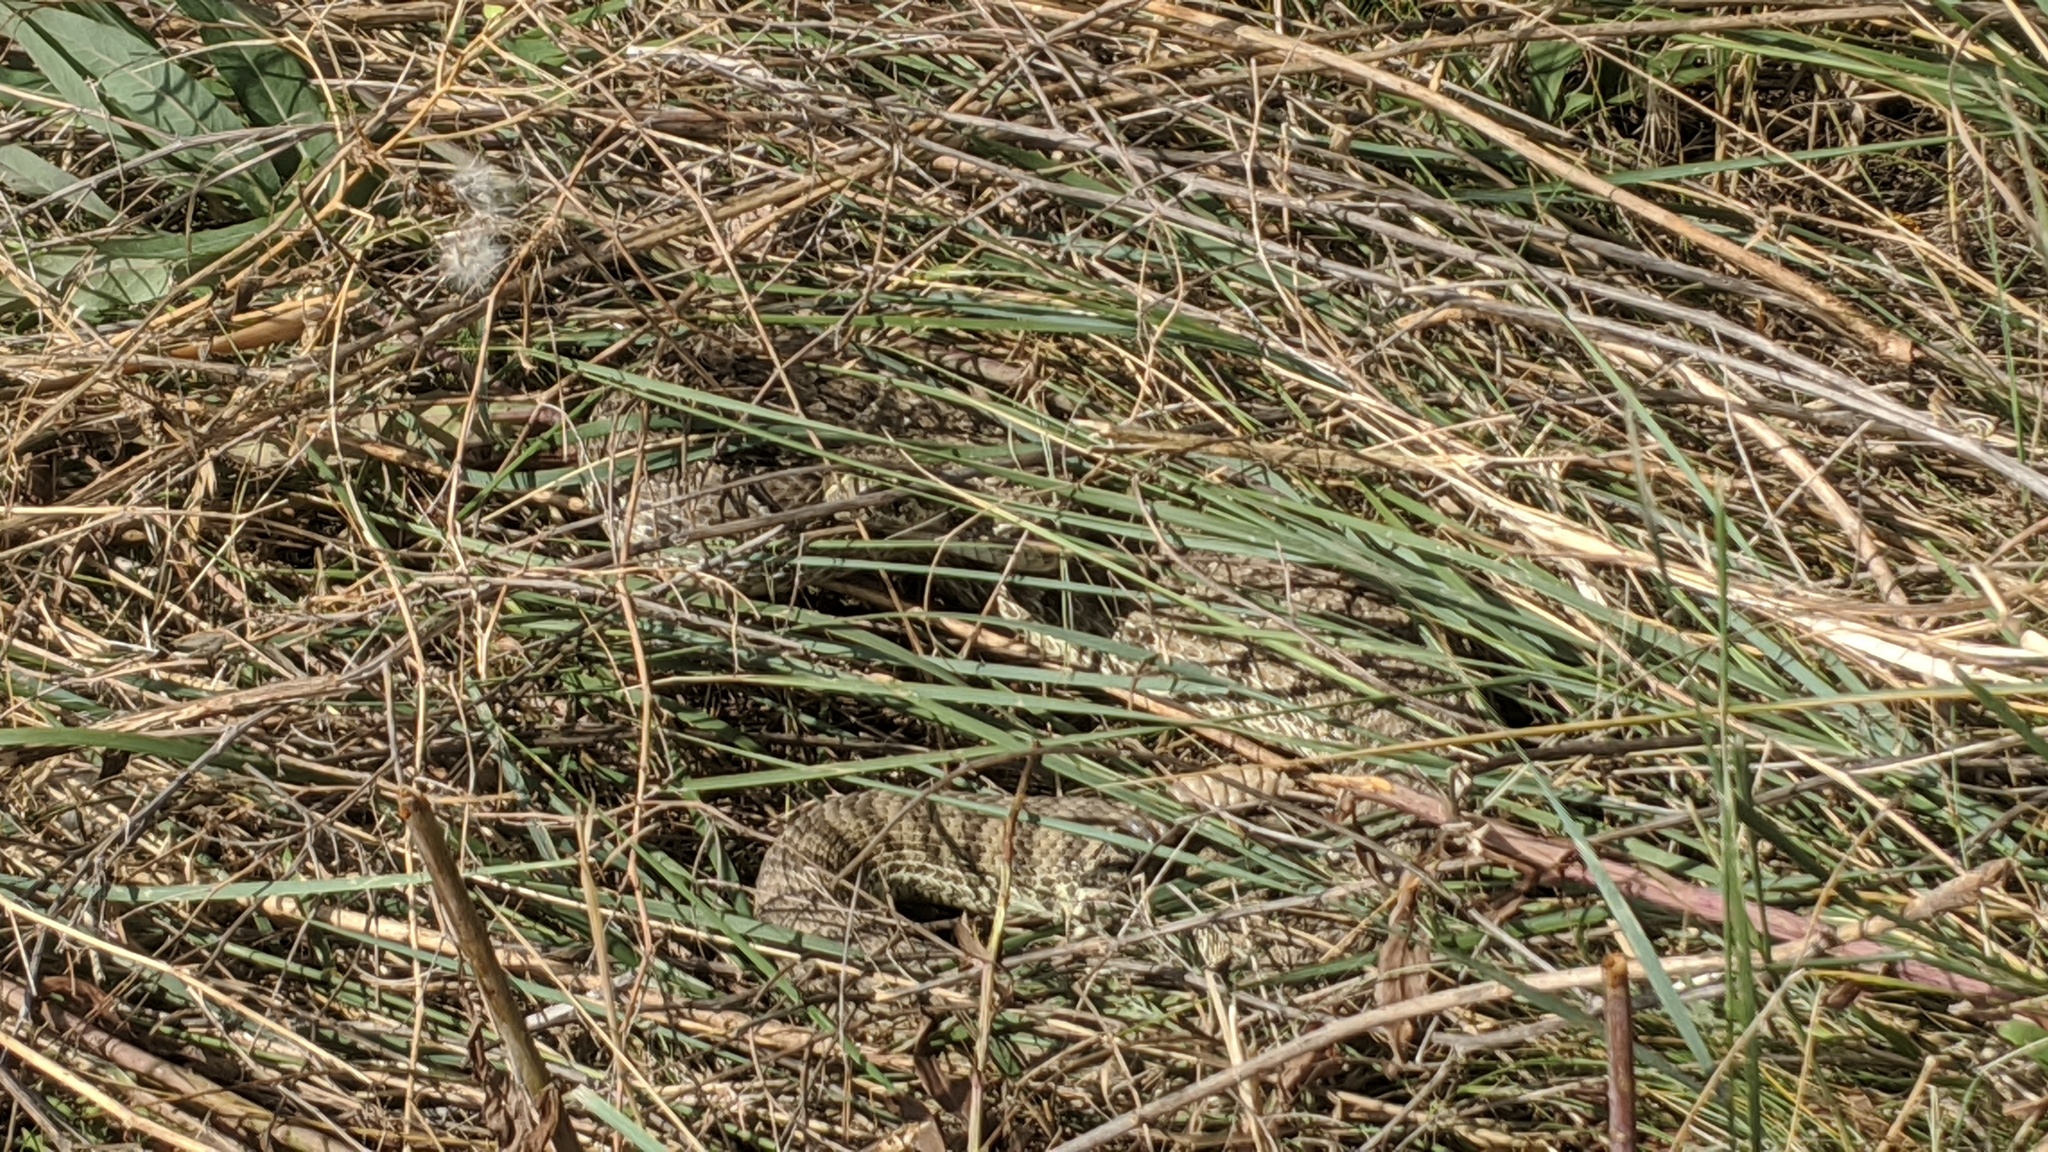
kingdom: Animalia
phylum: Chordata
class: Squamata
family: Viperidae
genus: Crotalus
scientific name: Crotalus viridis
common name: Prairie rattlesnake
